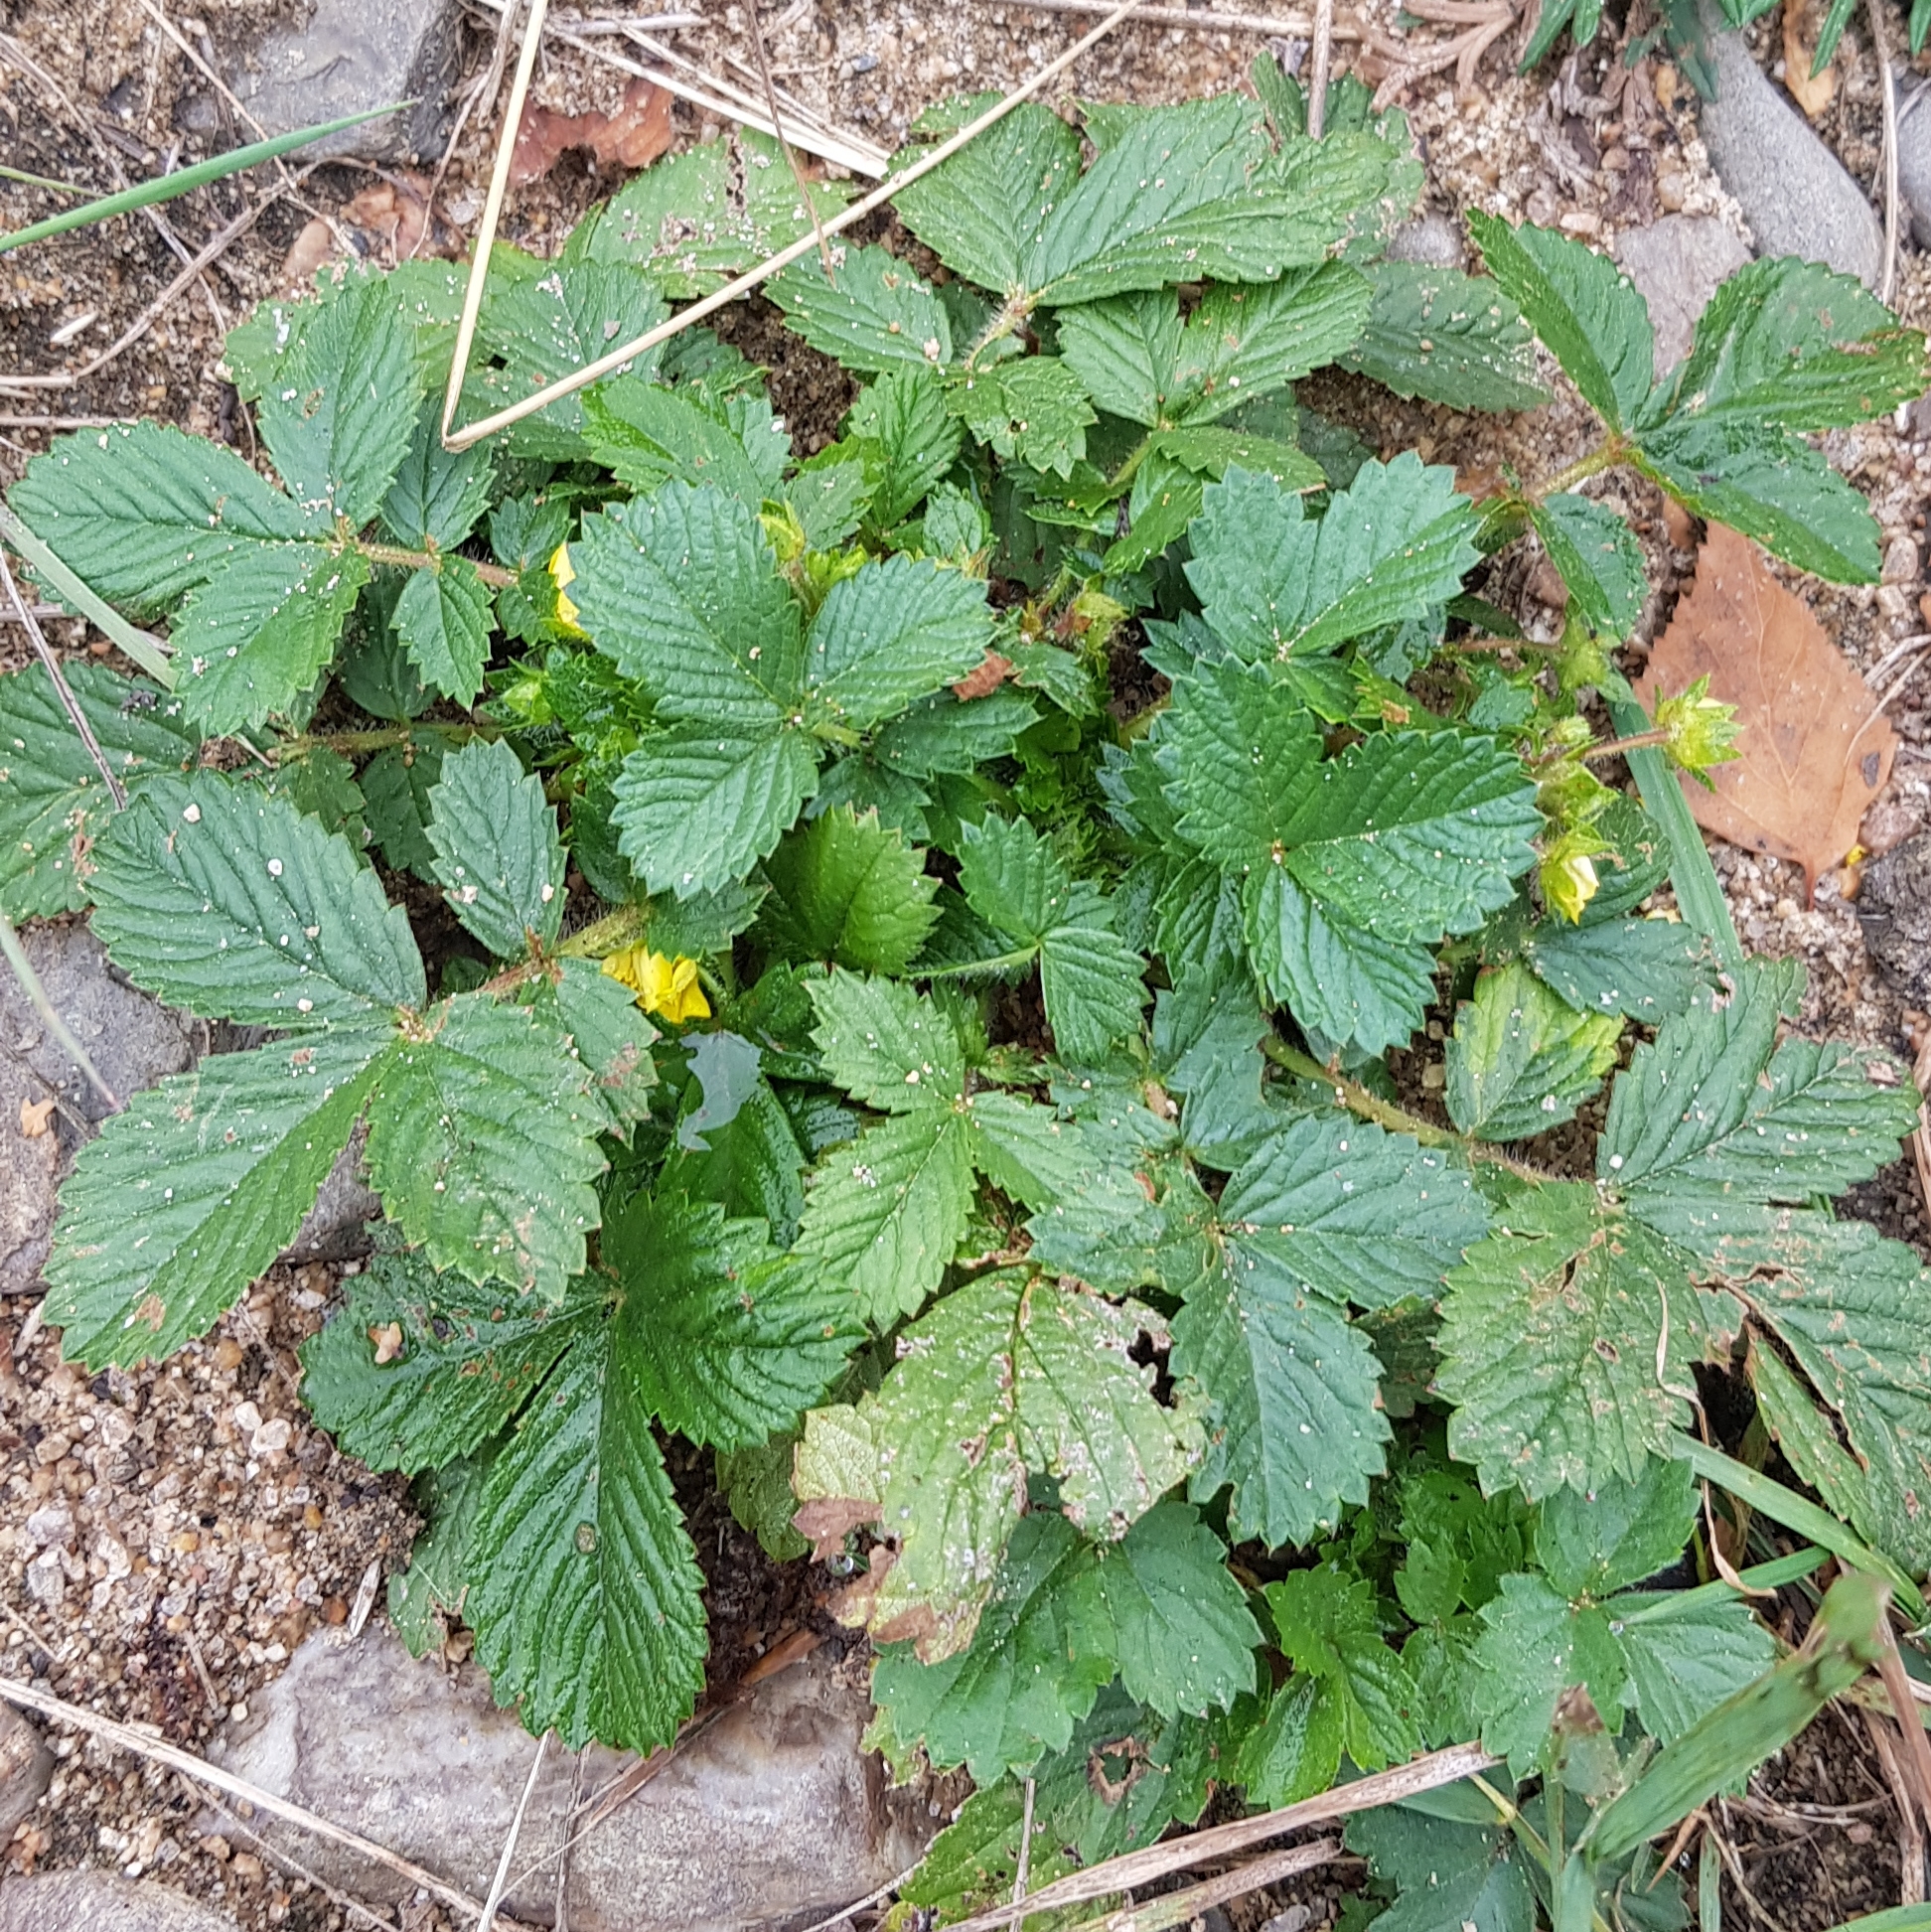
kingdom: Plantae
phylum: Tracheophyta
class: Magnoliopsida
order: Rosales
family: Rosaceae
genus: Potentilla
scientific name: Potentilla fragarioides
